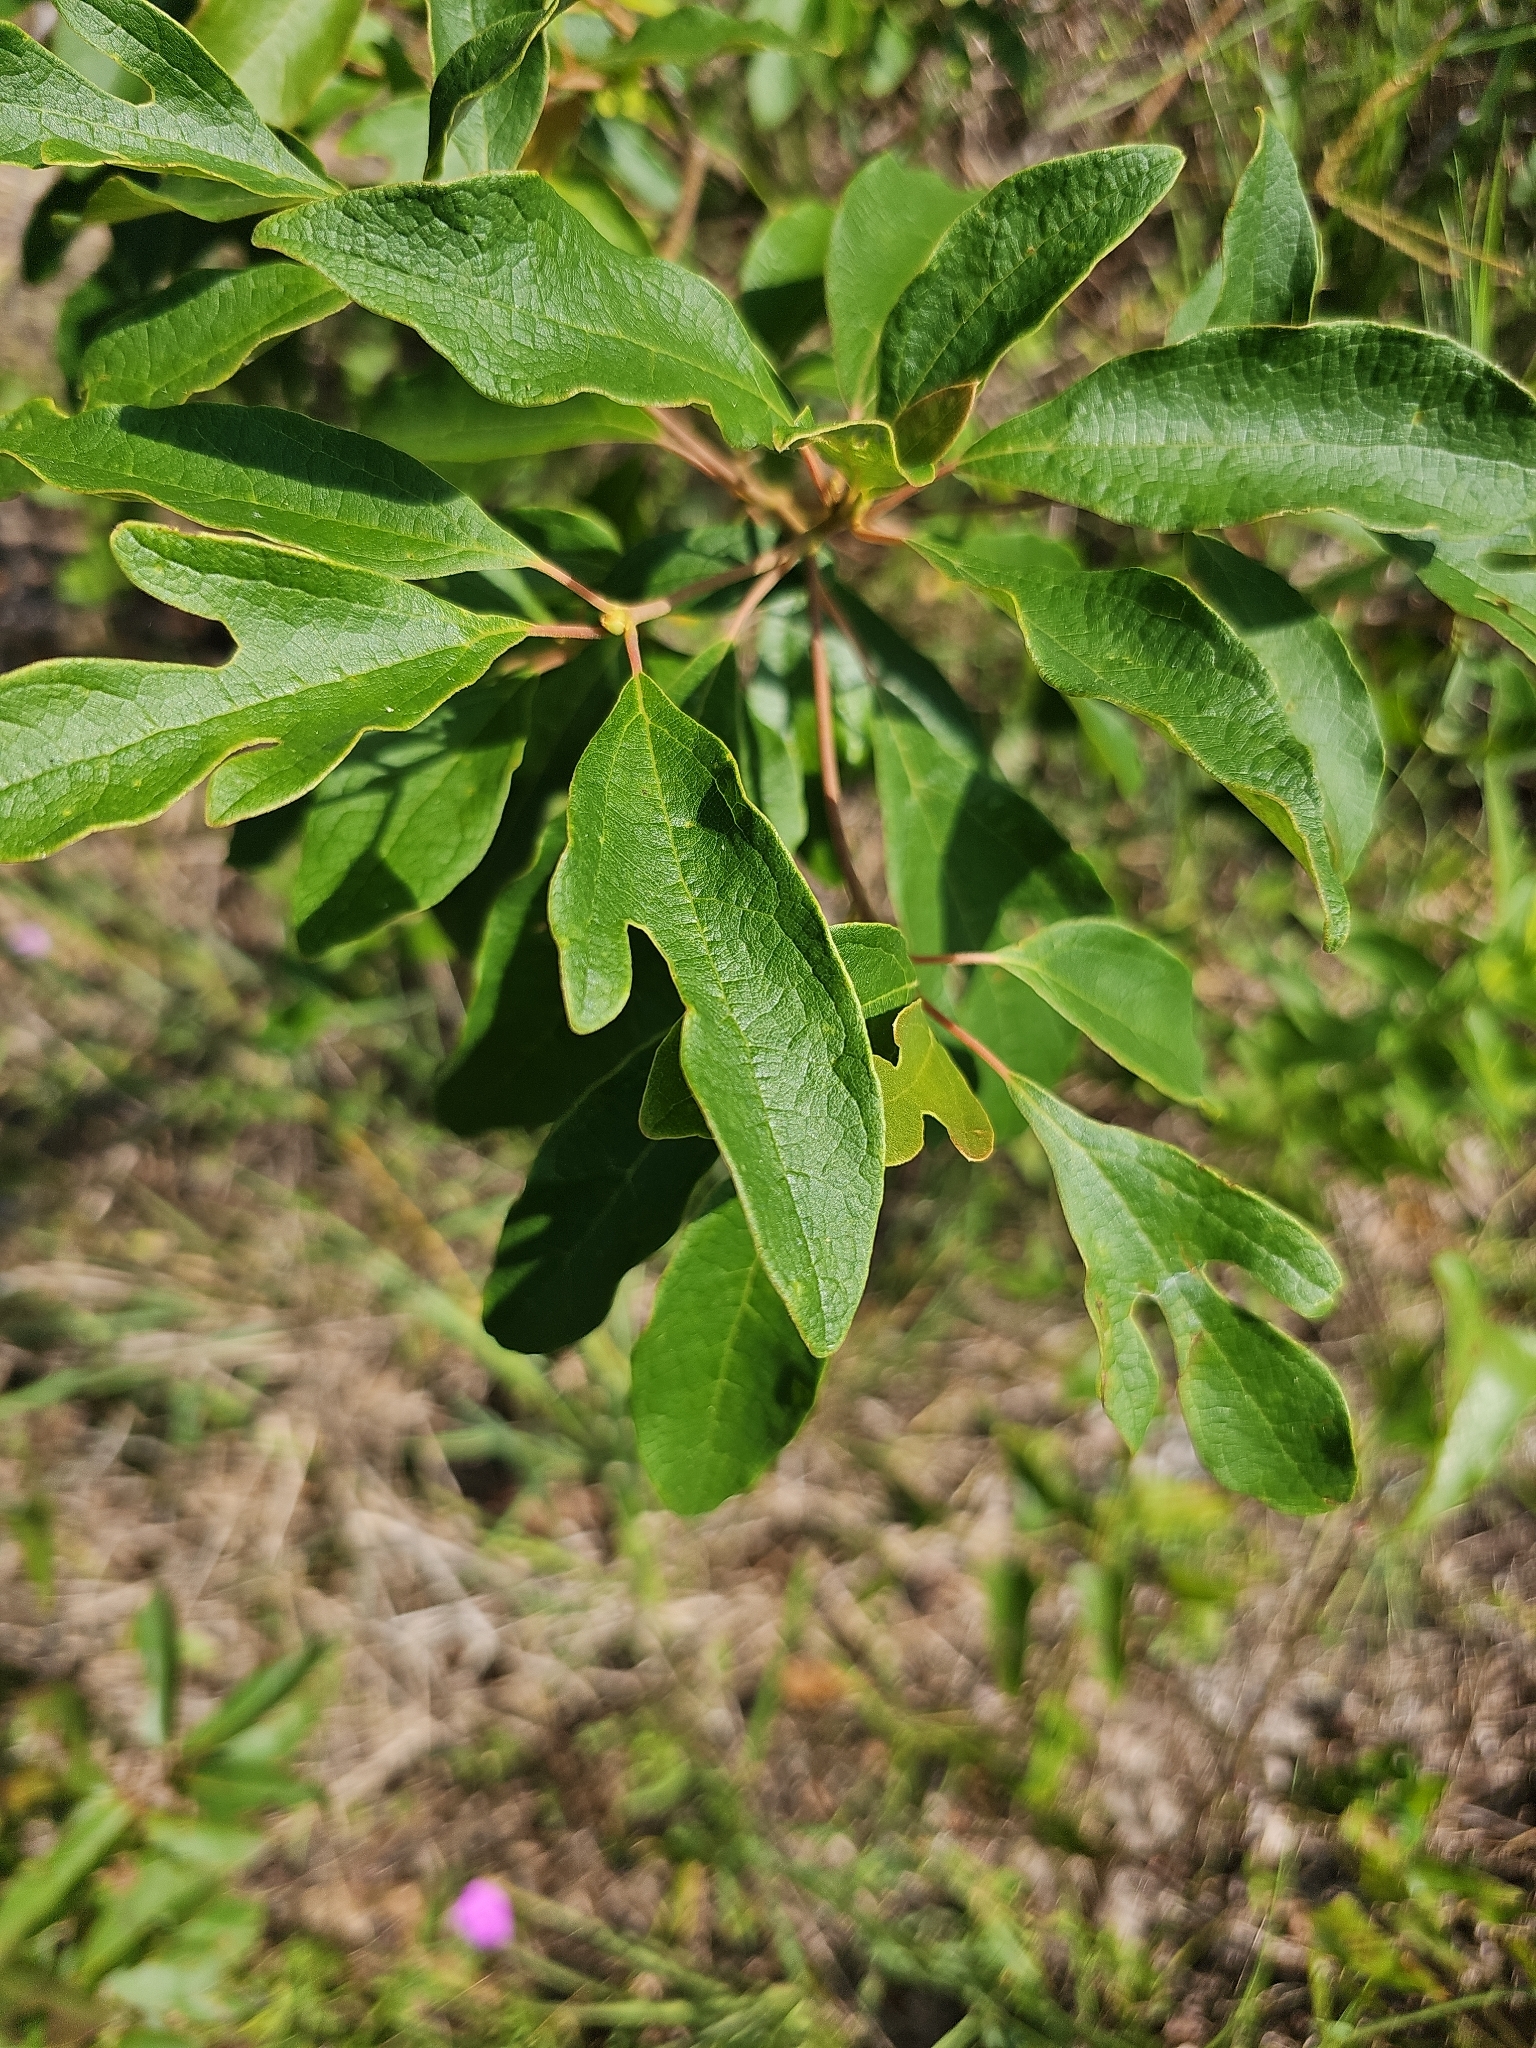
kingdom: Plantae
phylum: Tracheophyta
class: Magnoliopsida
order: Laurales
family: Lauraceae
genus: Sassafras
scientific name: Sassafras albidum
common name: Sassafras
